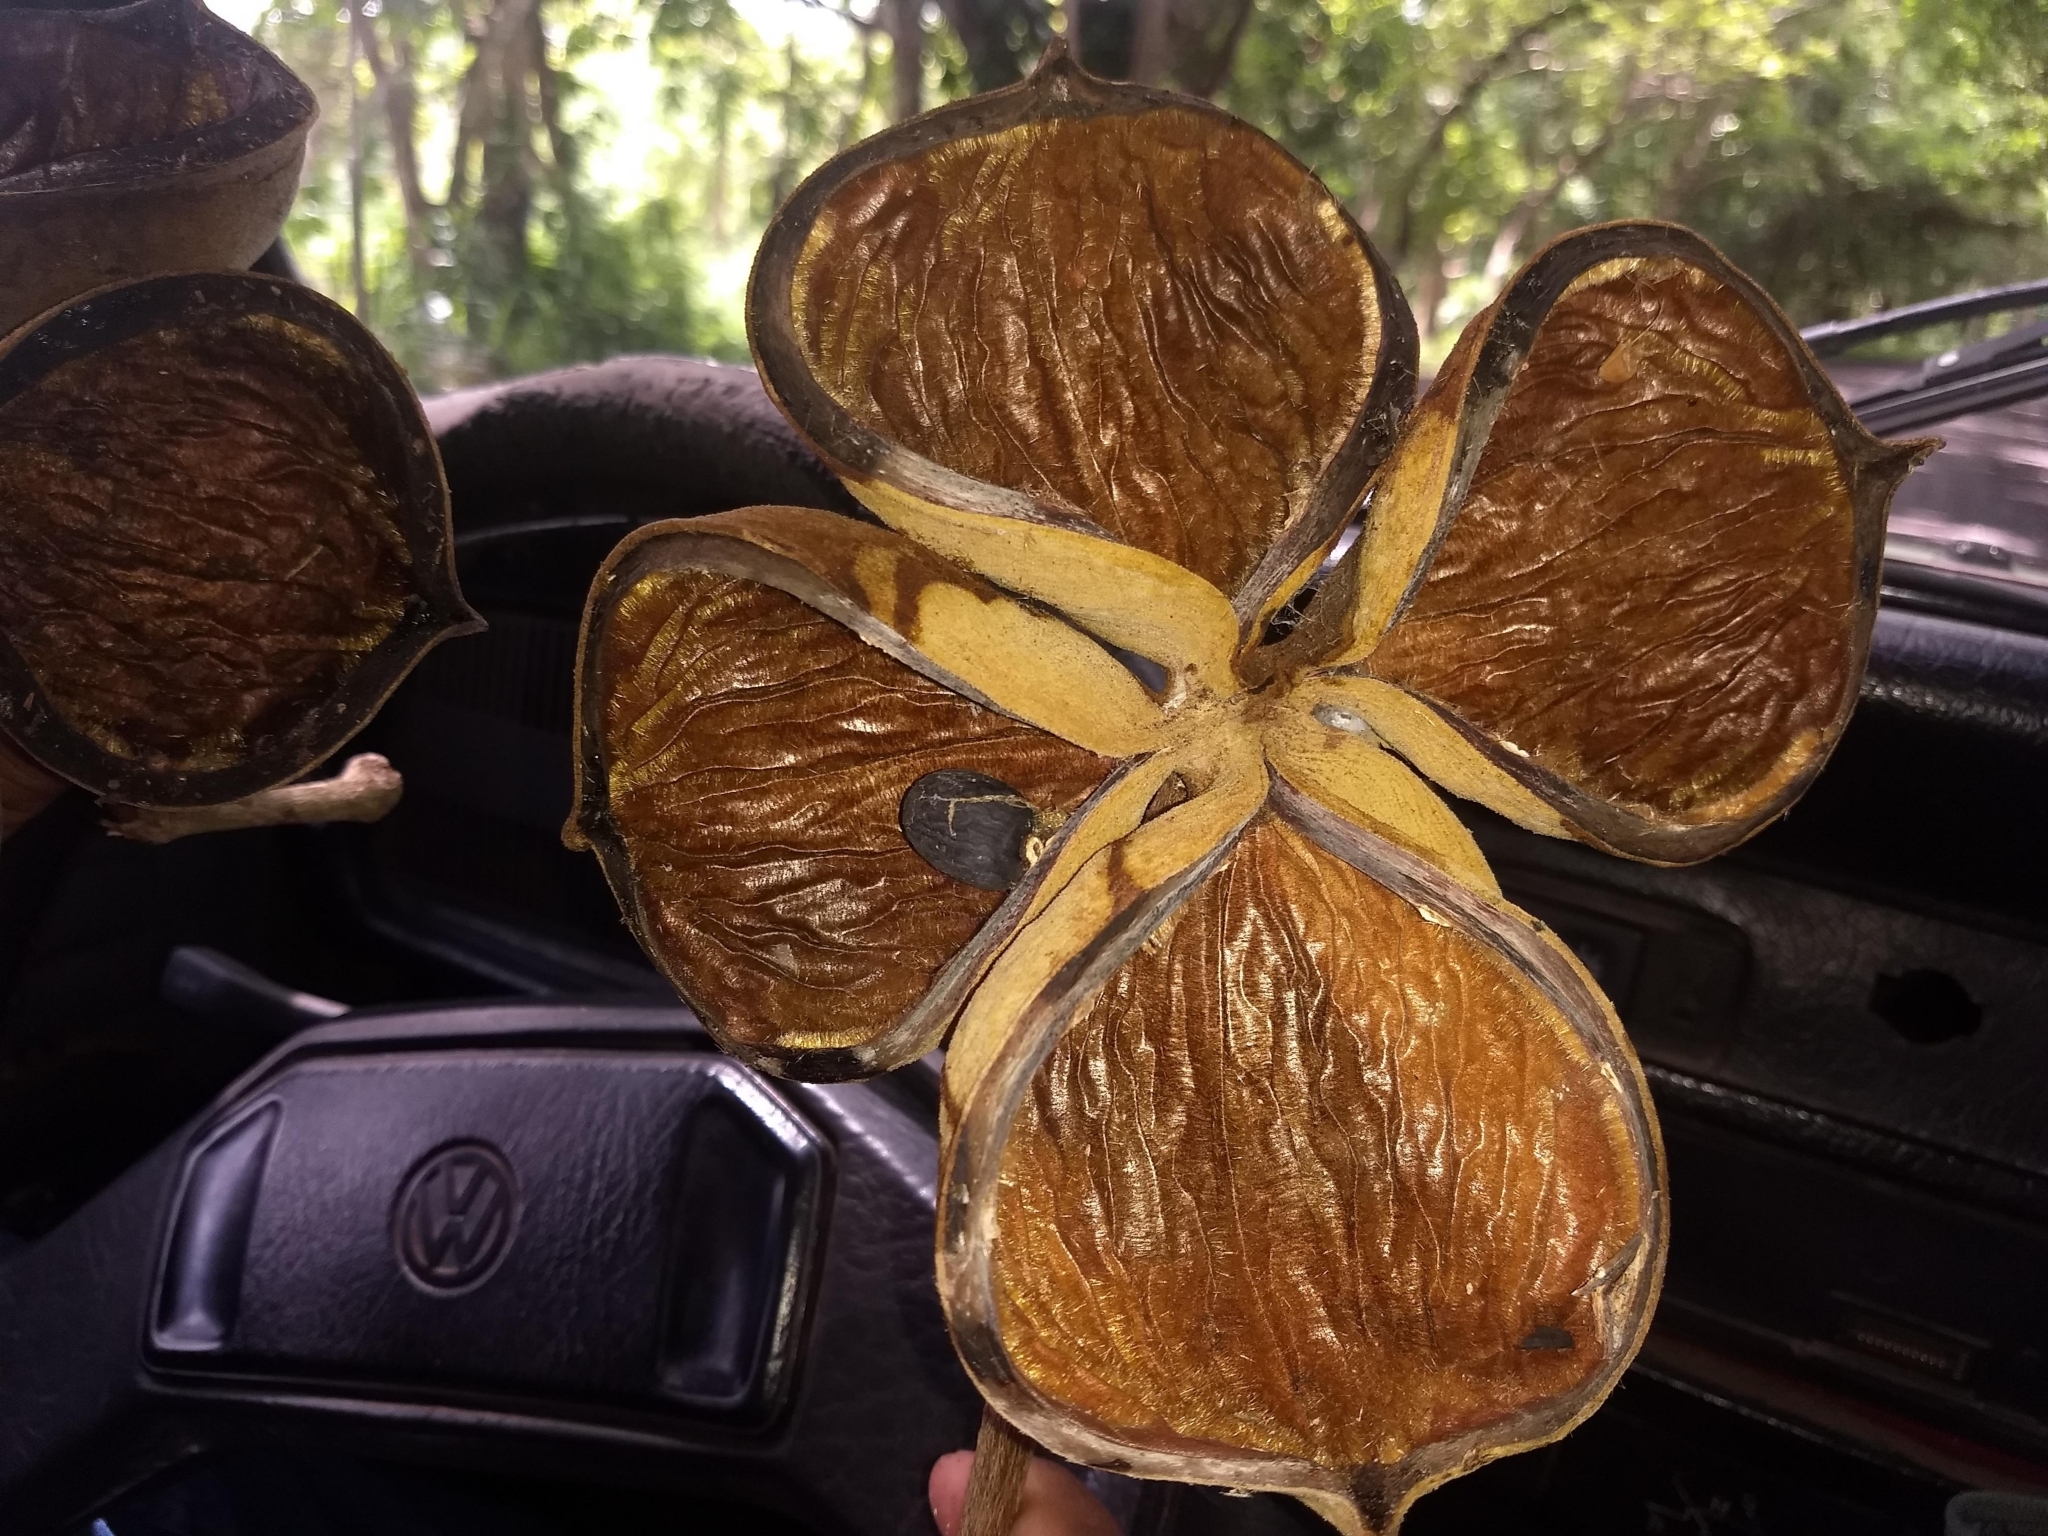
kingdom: Plantae
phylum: Tracheophyta
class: Magnoliopsida
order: Malvales
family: Malvaceae
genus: Sterculia
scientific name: Sterculia apetala
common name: Panama tree
